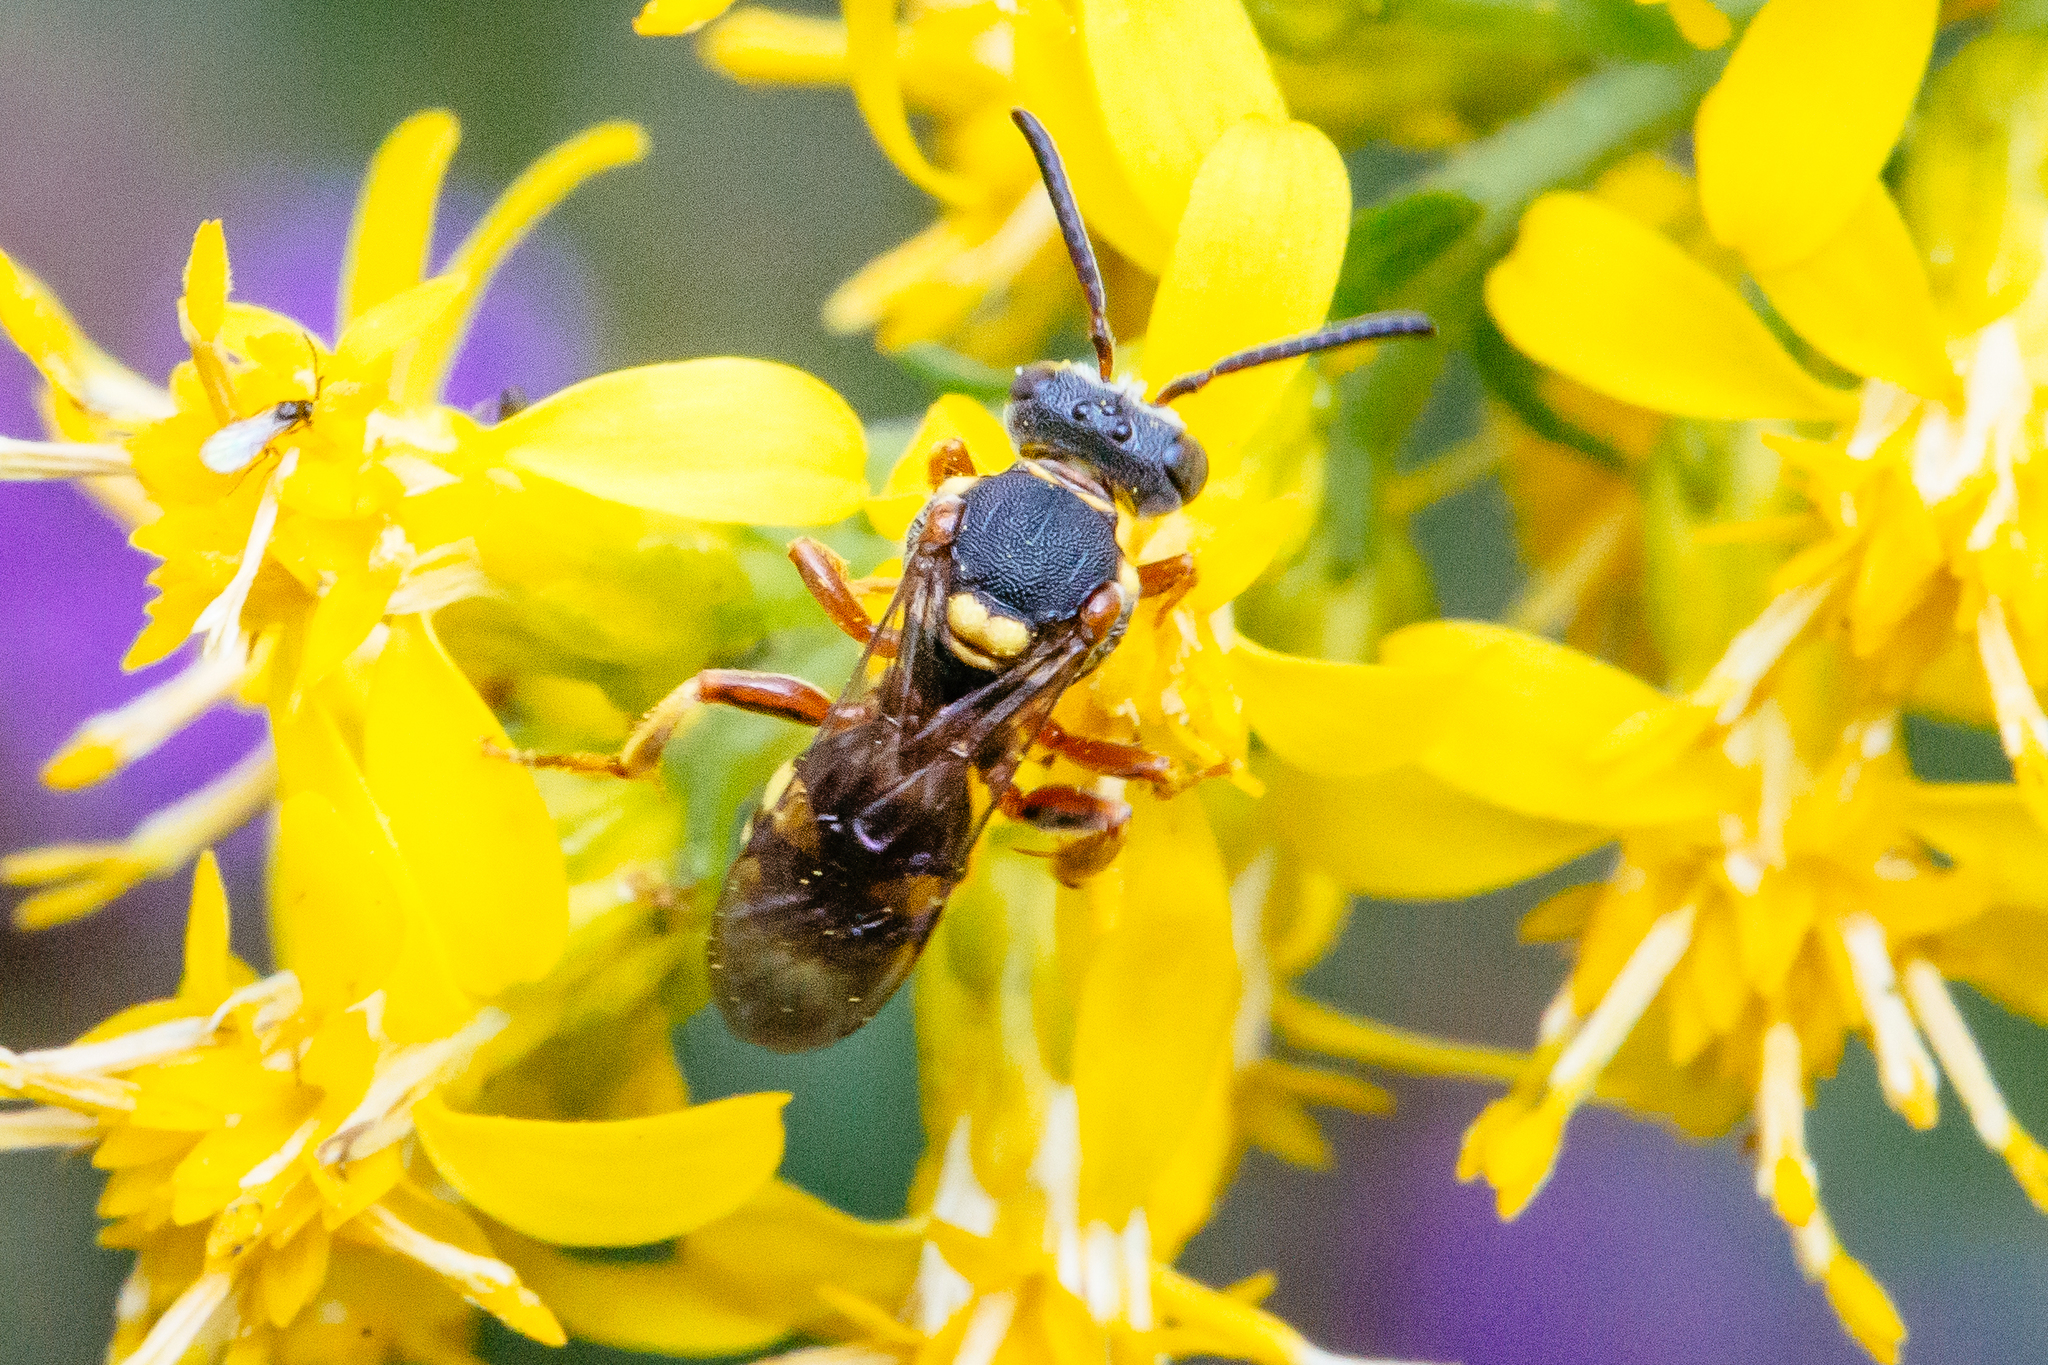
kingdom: Animalia
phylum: Arthropoda
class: Insecta
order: Hymenoptera
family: Apidae
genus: Nomada
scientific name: Nomada placida
